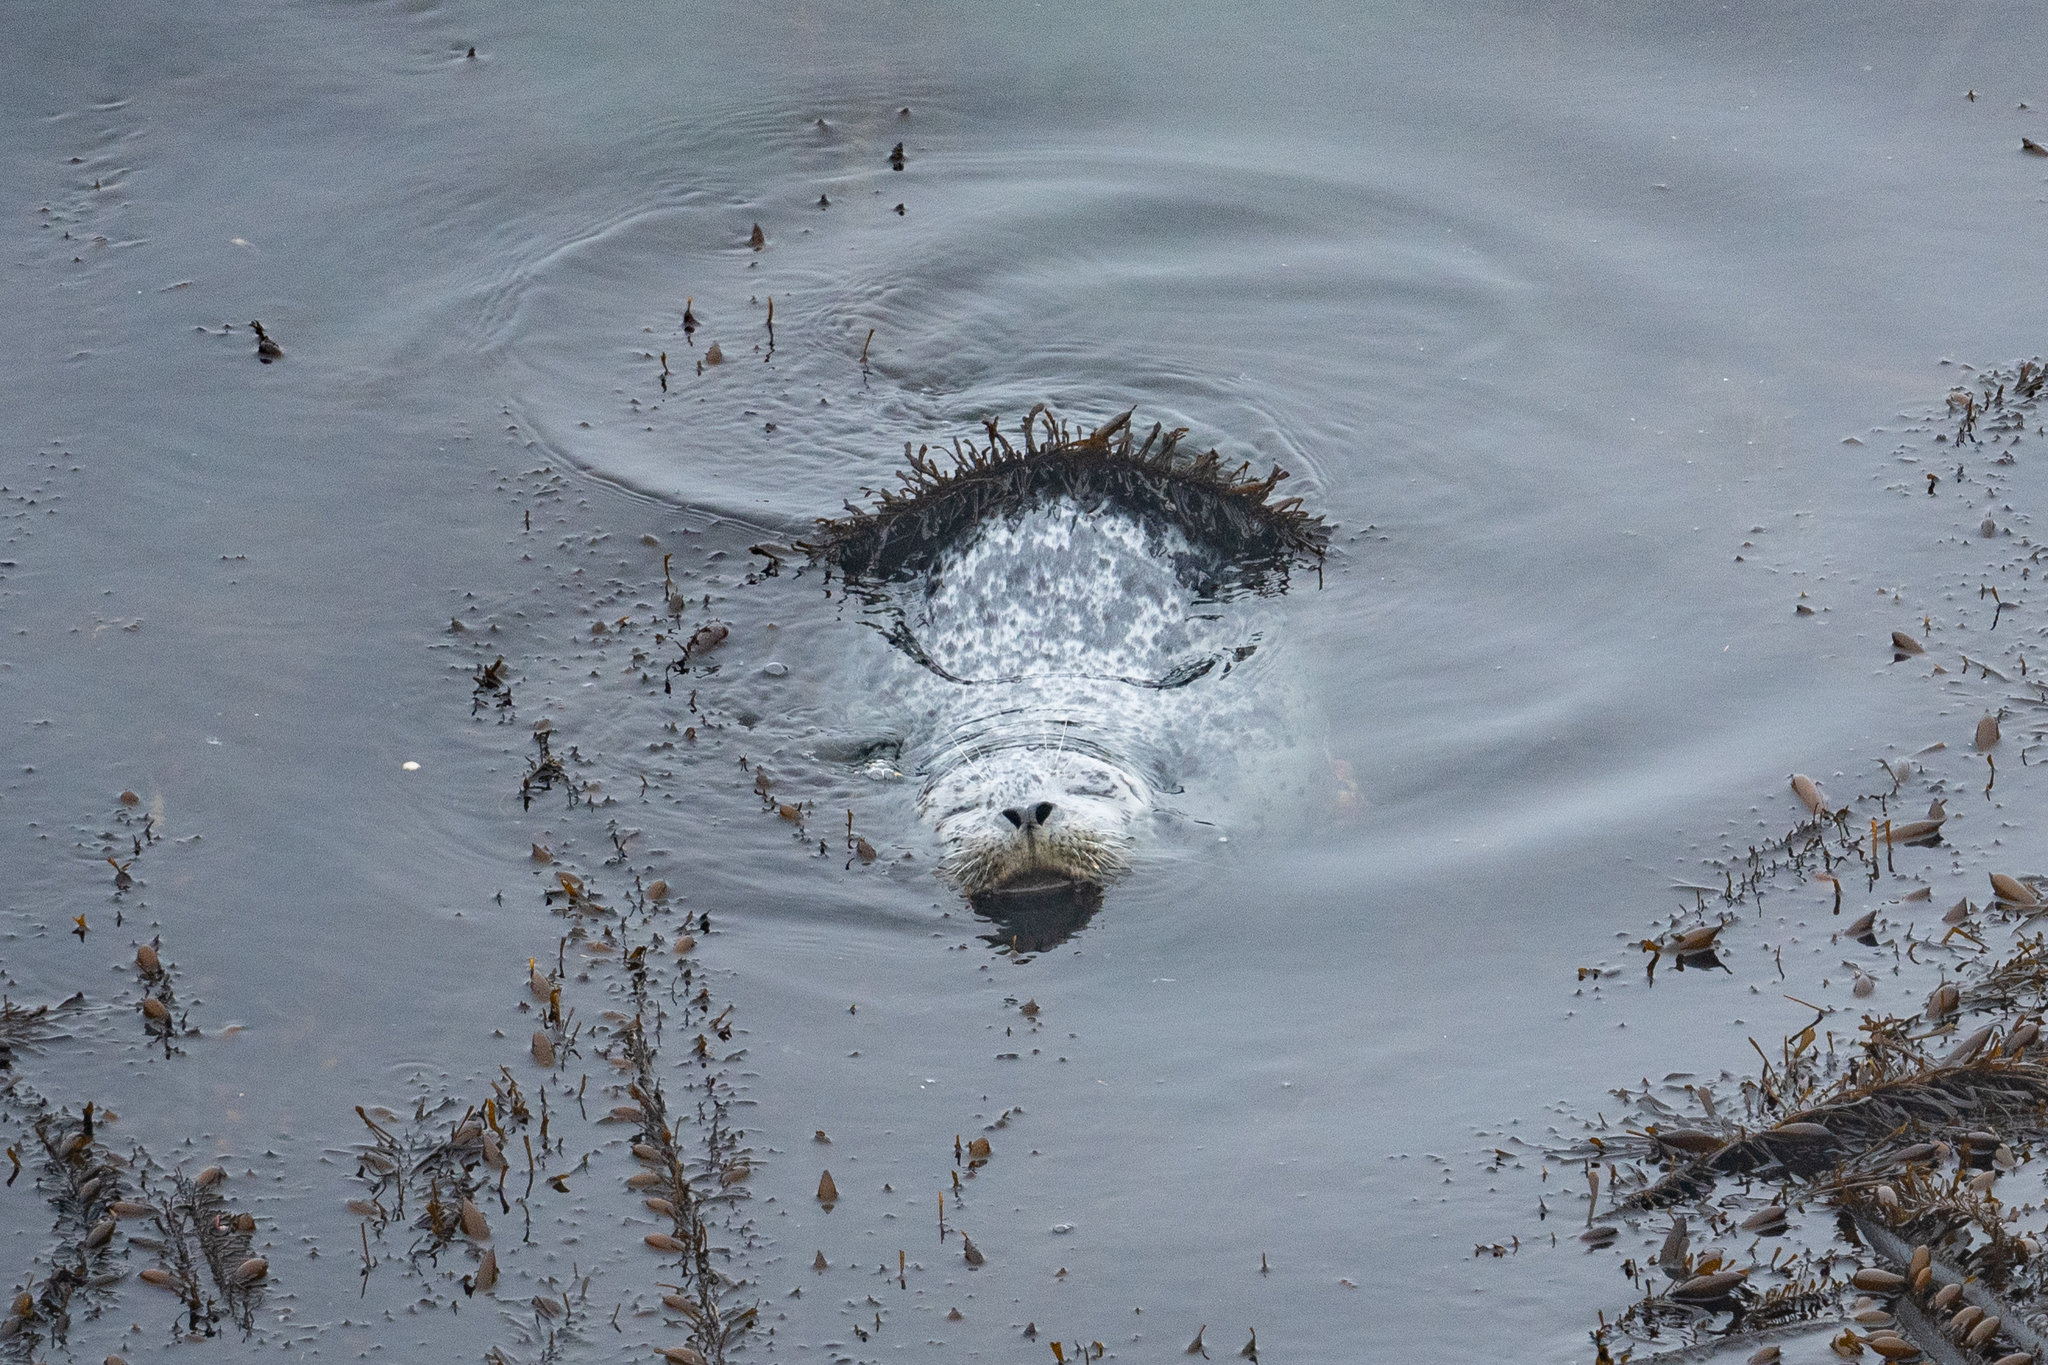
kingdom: Animalia
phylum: Chordata
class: Mammalia
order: Carnivora
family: Phocidae
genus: Phoca
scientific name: Phoca vitulina
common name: Harbor seal
